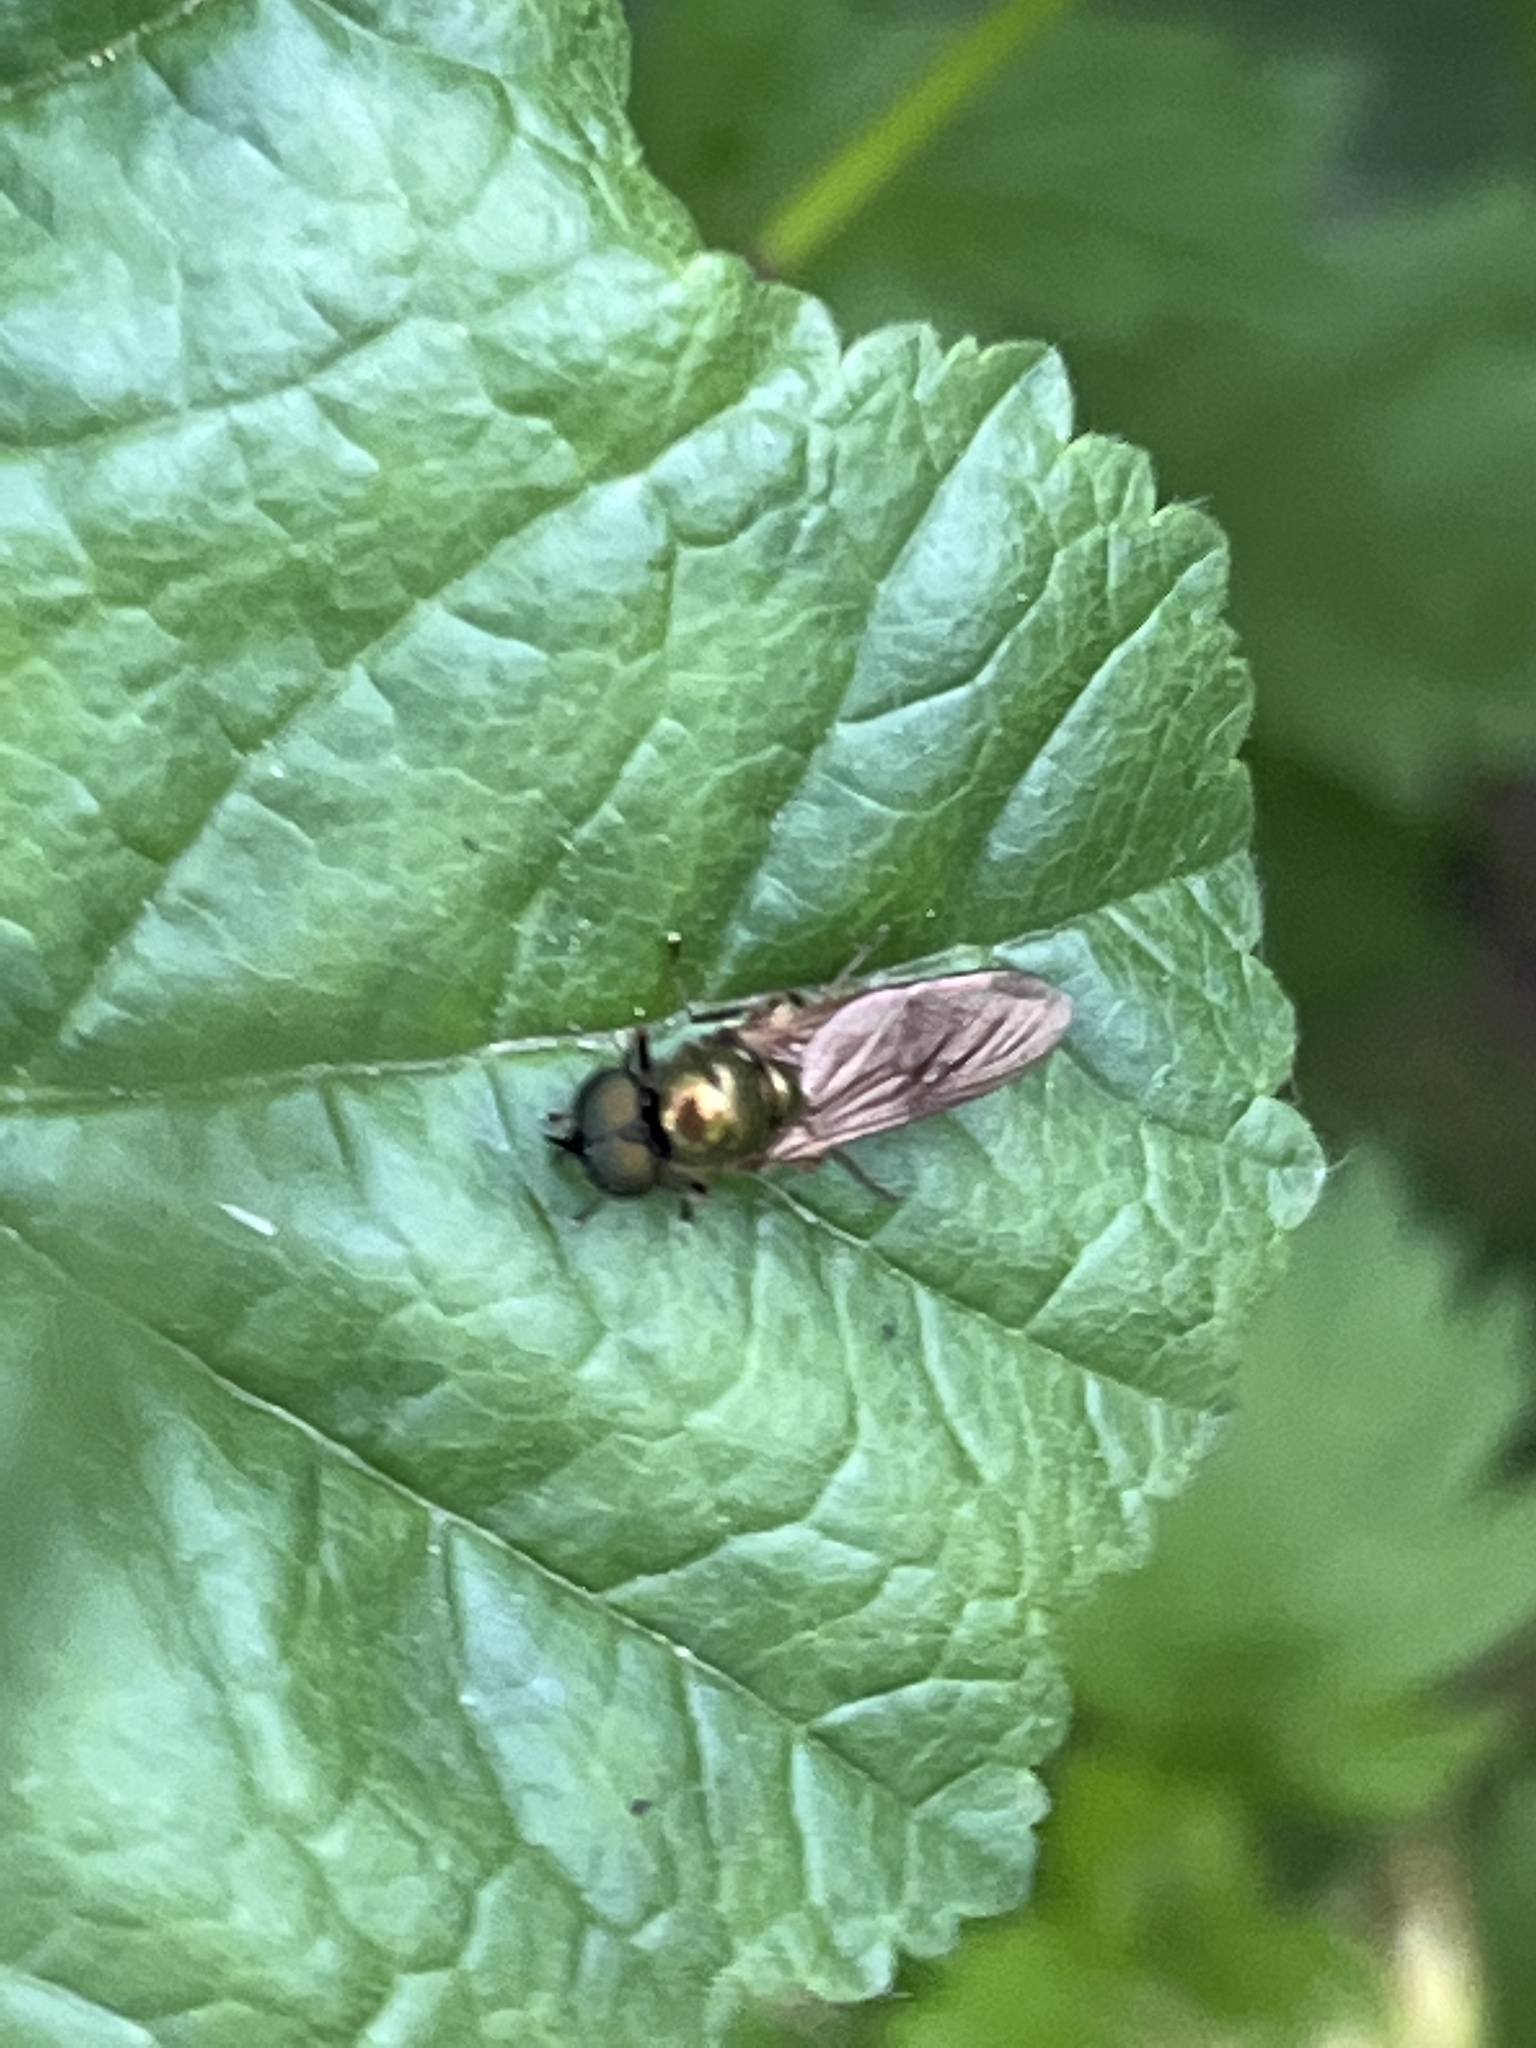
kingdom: Animalia
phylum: Arthropoda
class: Insecta
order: Diptera
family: Stratiomyidae
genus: Chloromyia
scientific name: Chloromyia formosa
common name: Soldier fly
